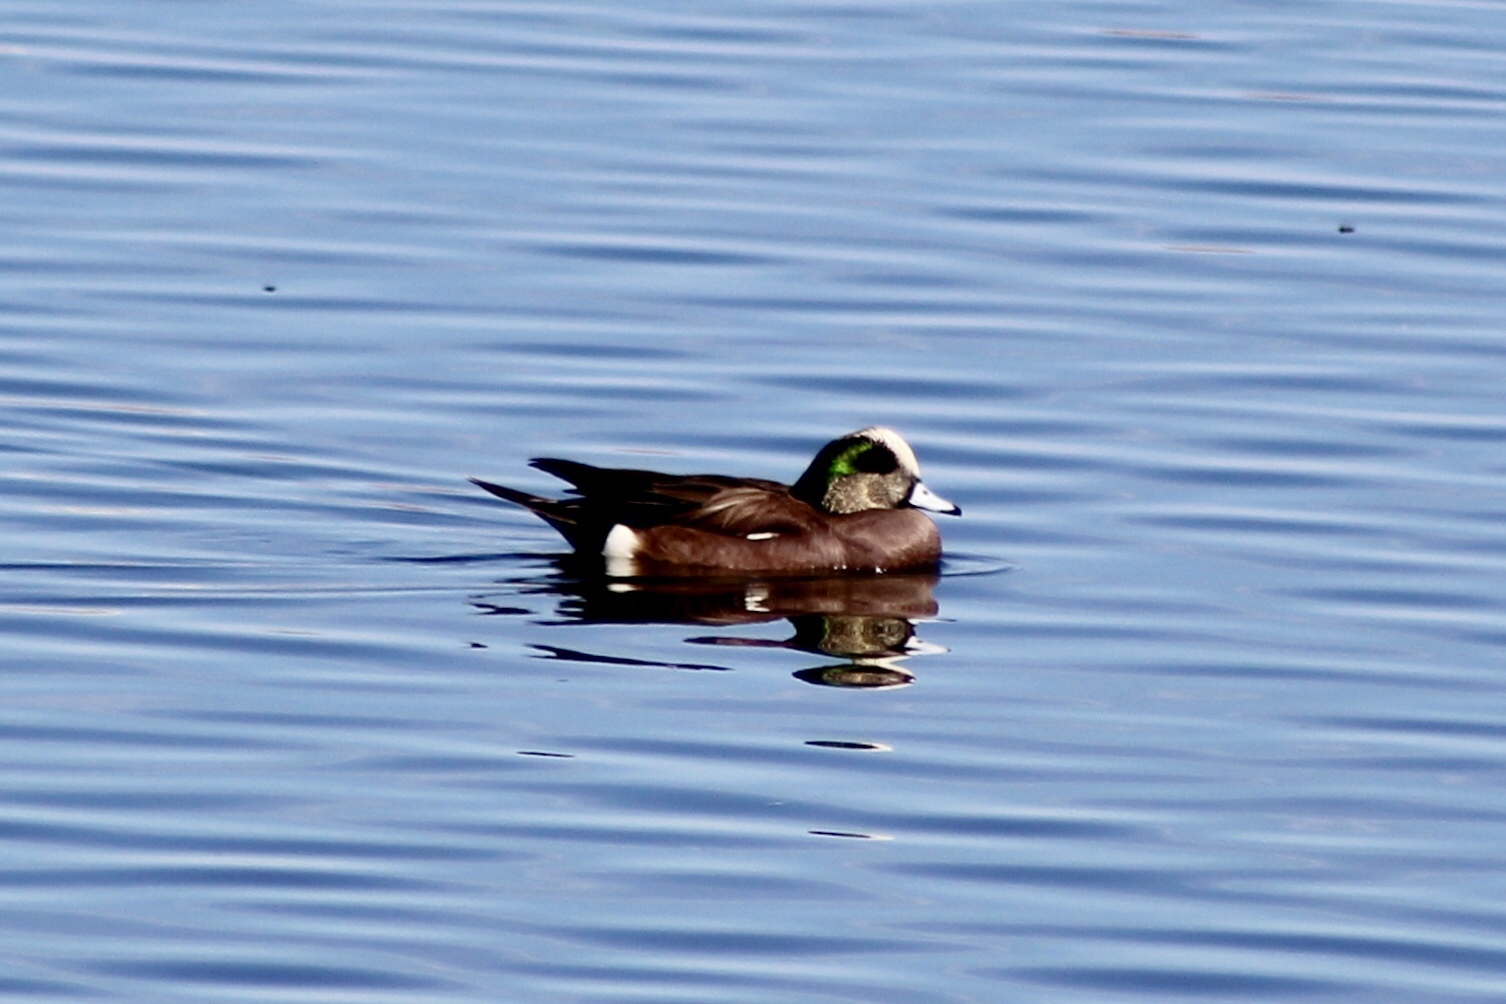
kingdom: Animalia
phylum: Chordata
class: Aves
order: Anseriformes
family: Anatidae
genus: Mareca
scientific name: Mareca americana
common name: American wigeon
